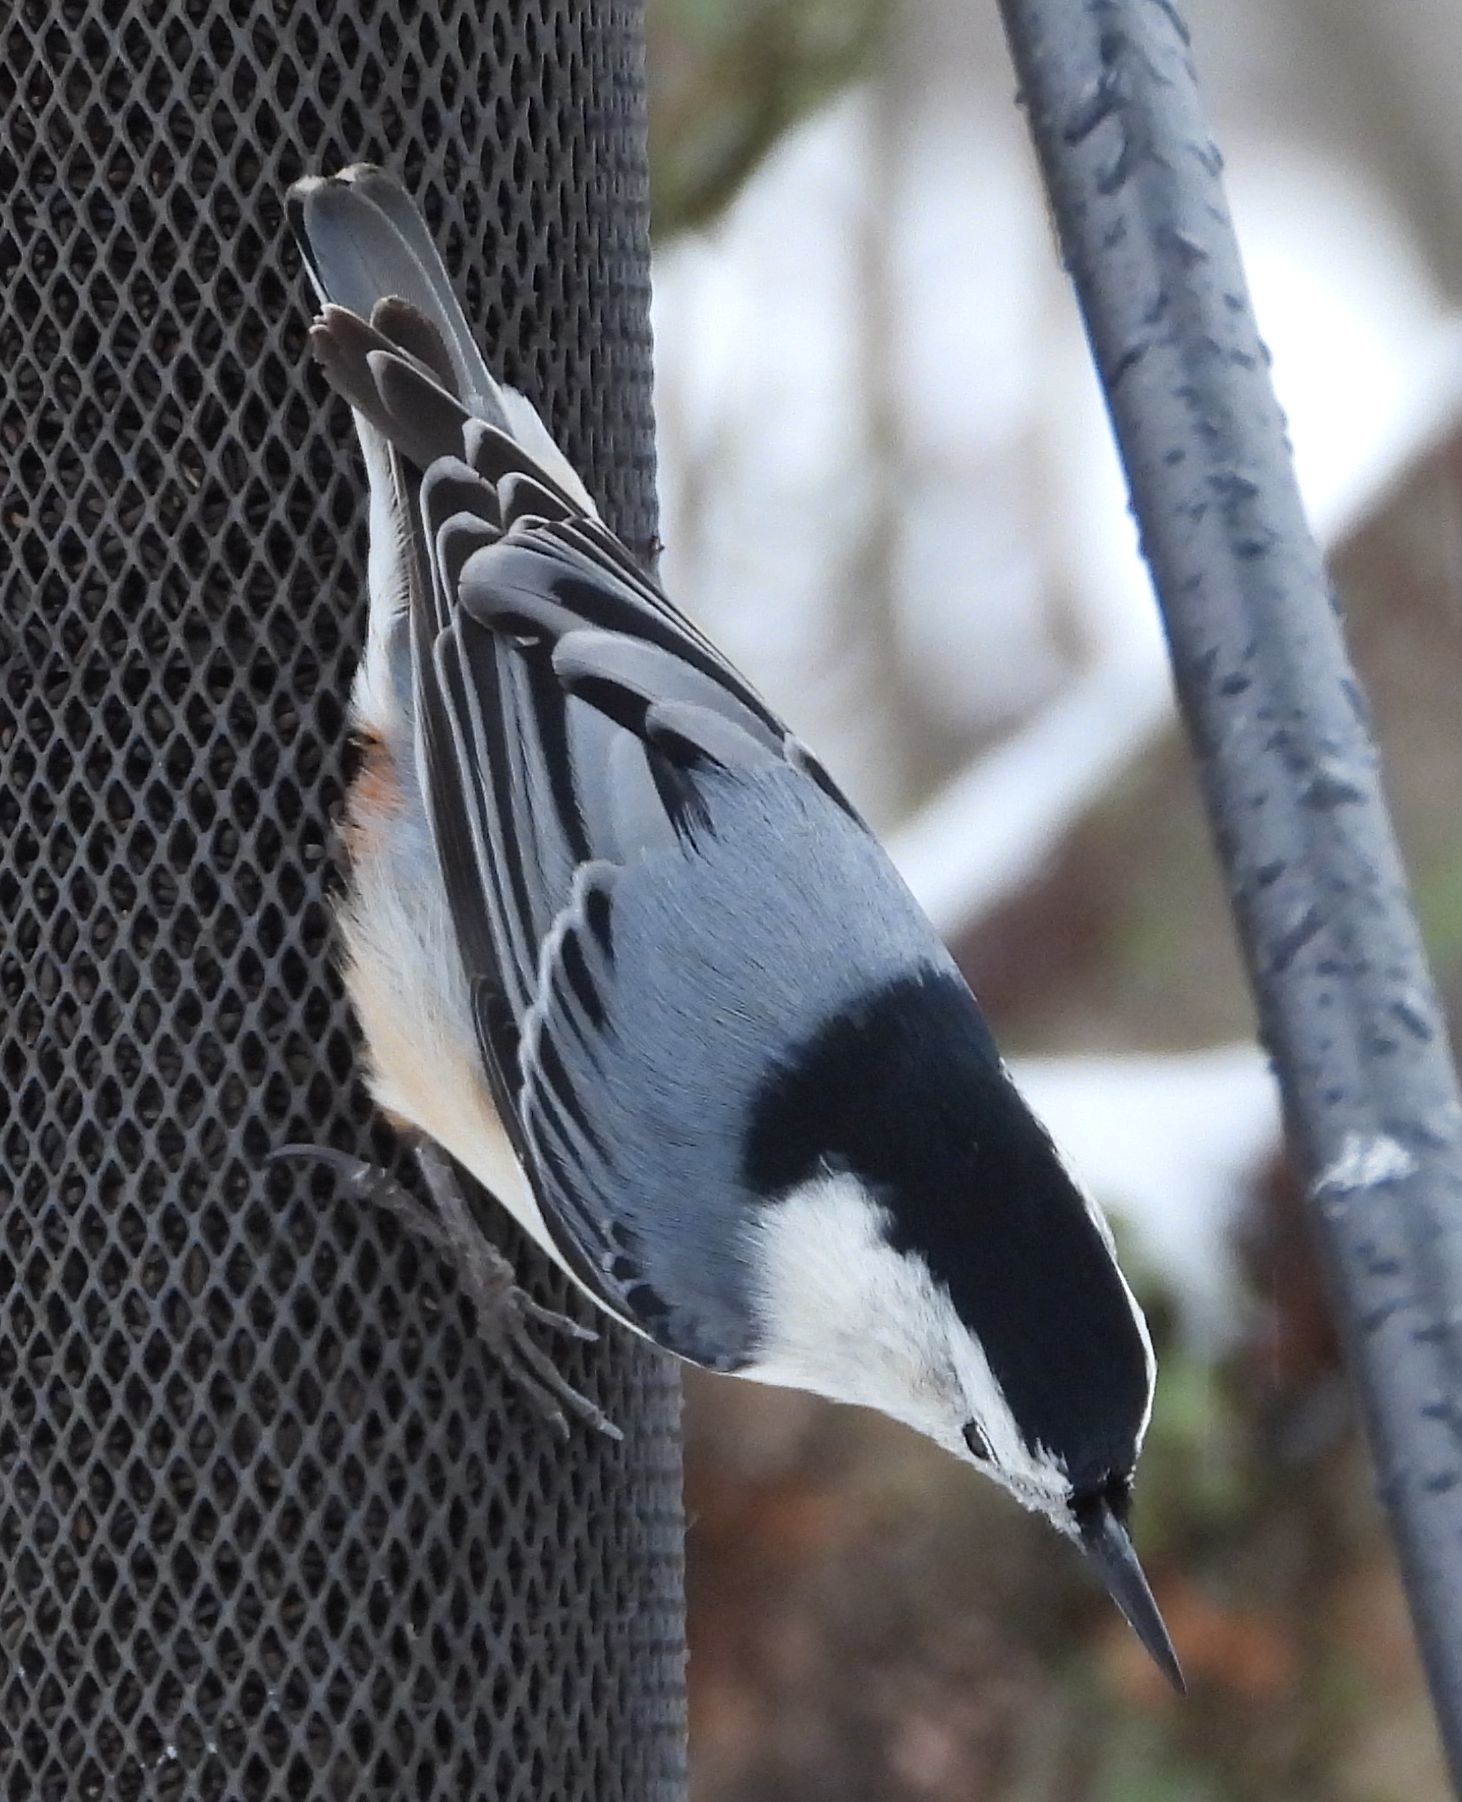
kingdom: Animalia
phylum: Chordata
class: Aves
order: Passeriformes
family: Sittidae
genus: Sitta
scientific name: Sitta carolinensis
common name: White-breasted nuthatch
